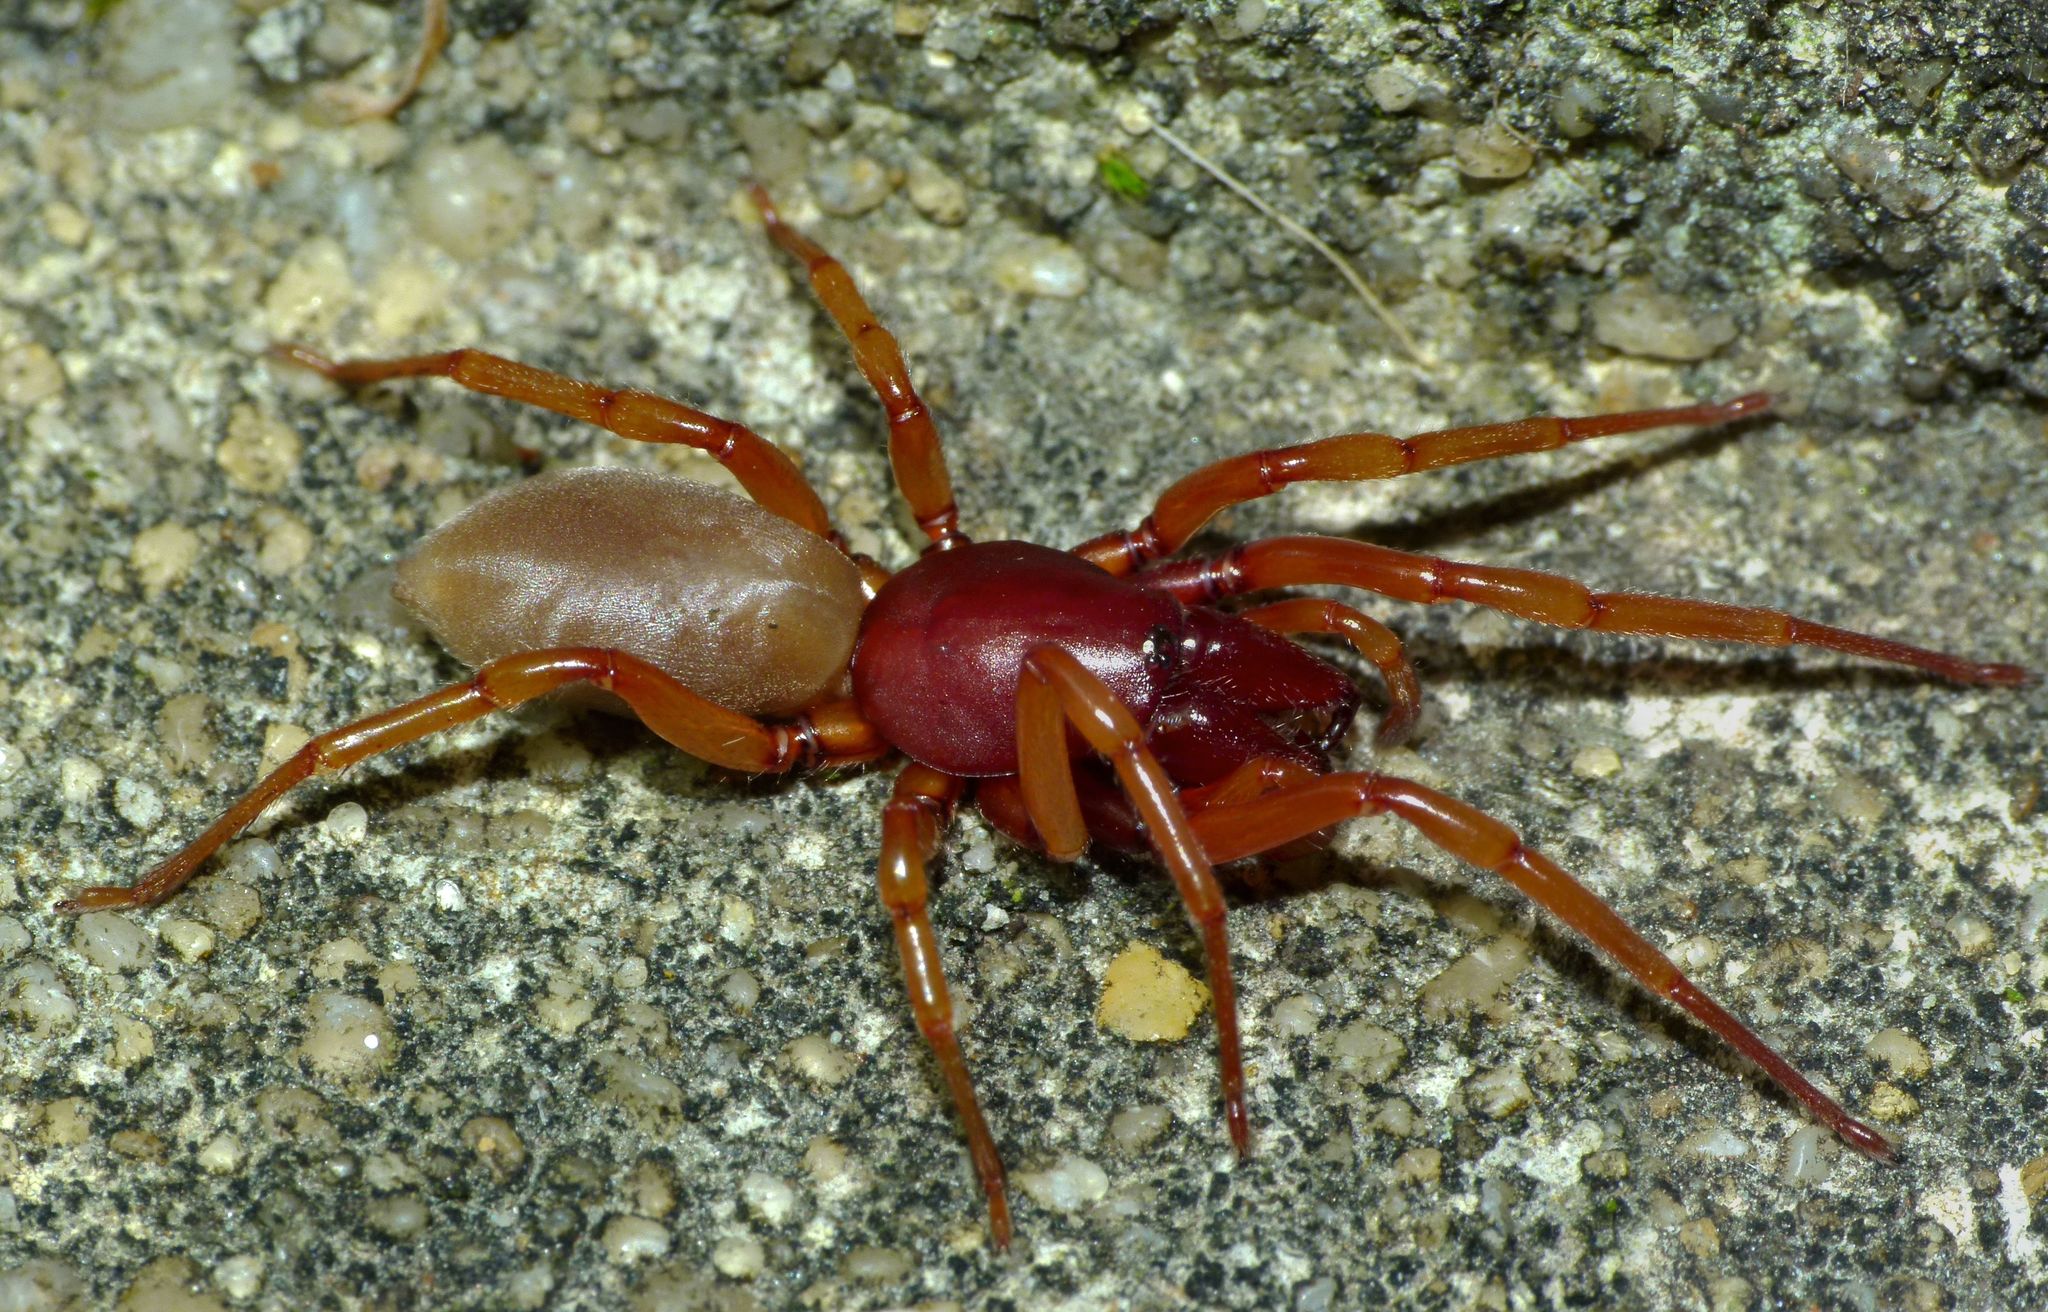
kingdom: Animalia
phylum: Arthropoda
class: Arachnida
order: Araneae
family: Dysderidae
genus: Dysdera
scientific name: Dysdera crocata
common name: Woodlouse spider
